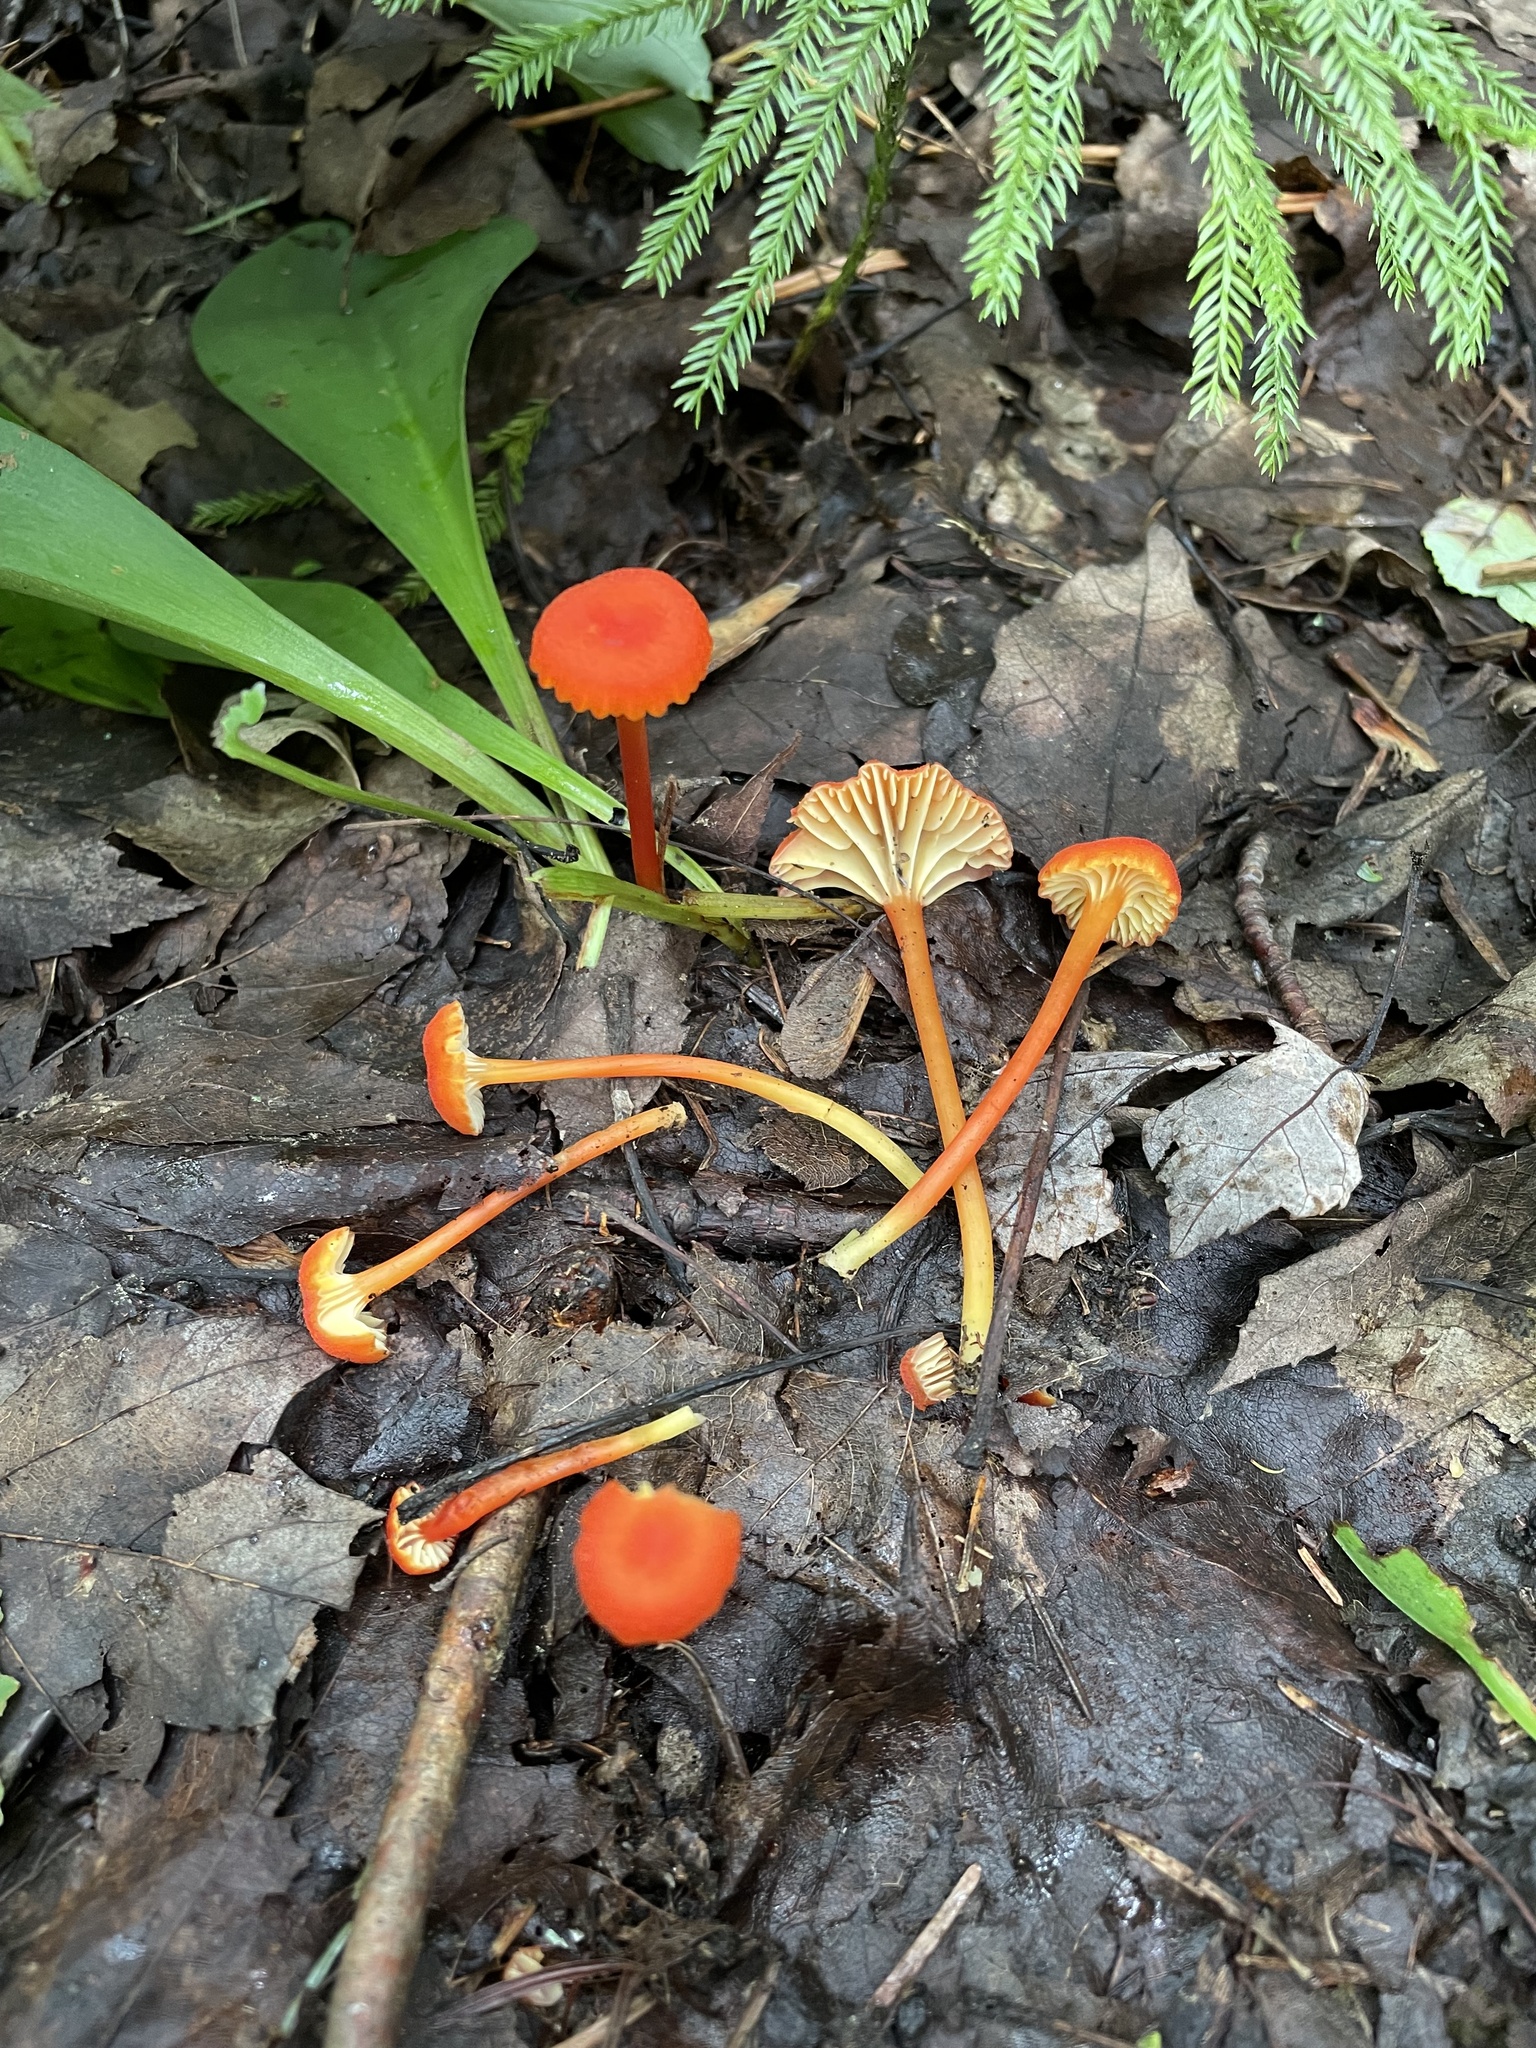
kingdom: Fungi
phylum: Basidiomycota
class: Agaricomycetes
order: Agaricales
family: Hygrophoraceae
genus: Hygrocybe
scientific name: Hygrocybe cantharellus
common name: Goblet waxcap
